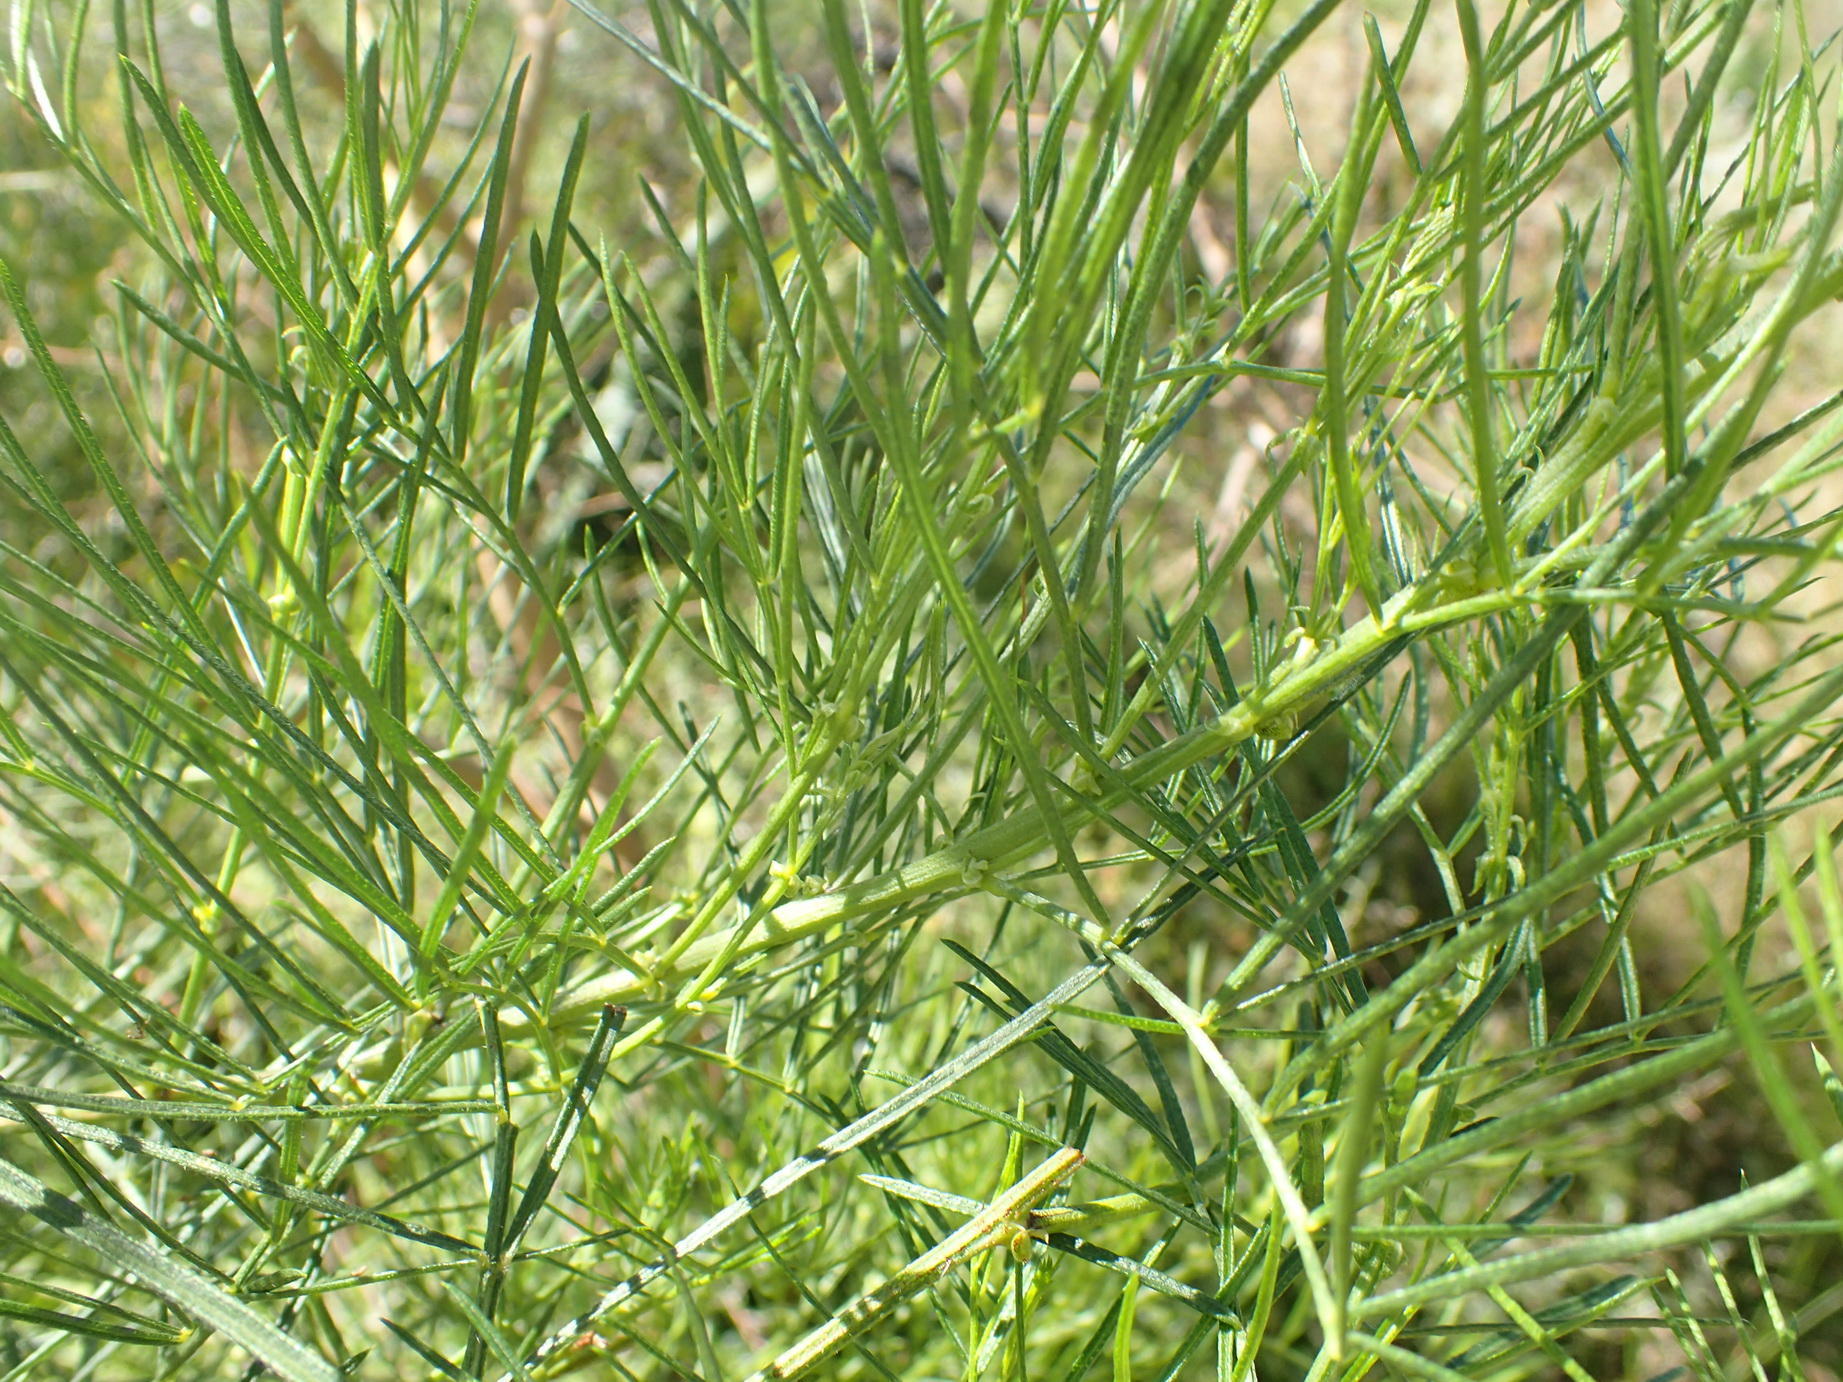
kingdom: Plantae
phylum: Tracheophyta
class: Magnoliopsida
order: Fabales
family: Fabaceae
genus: Psoralea
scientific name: Psoralea montana
